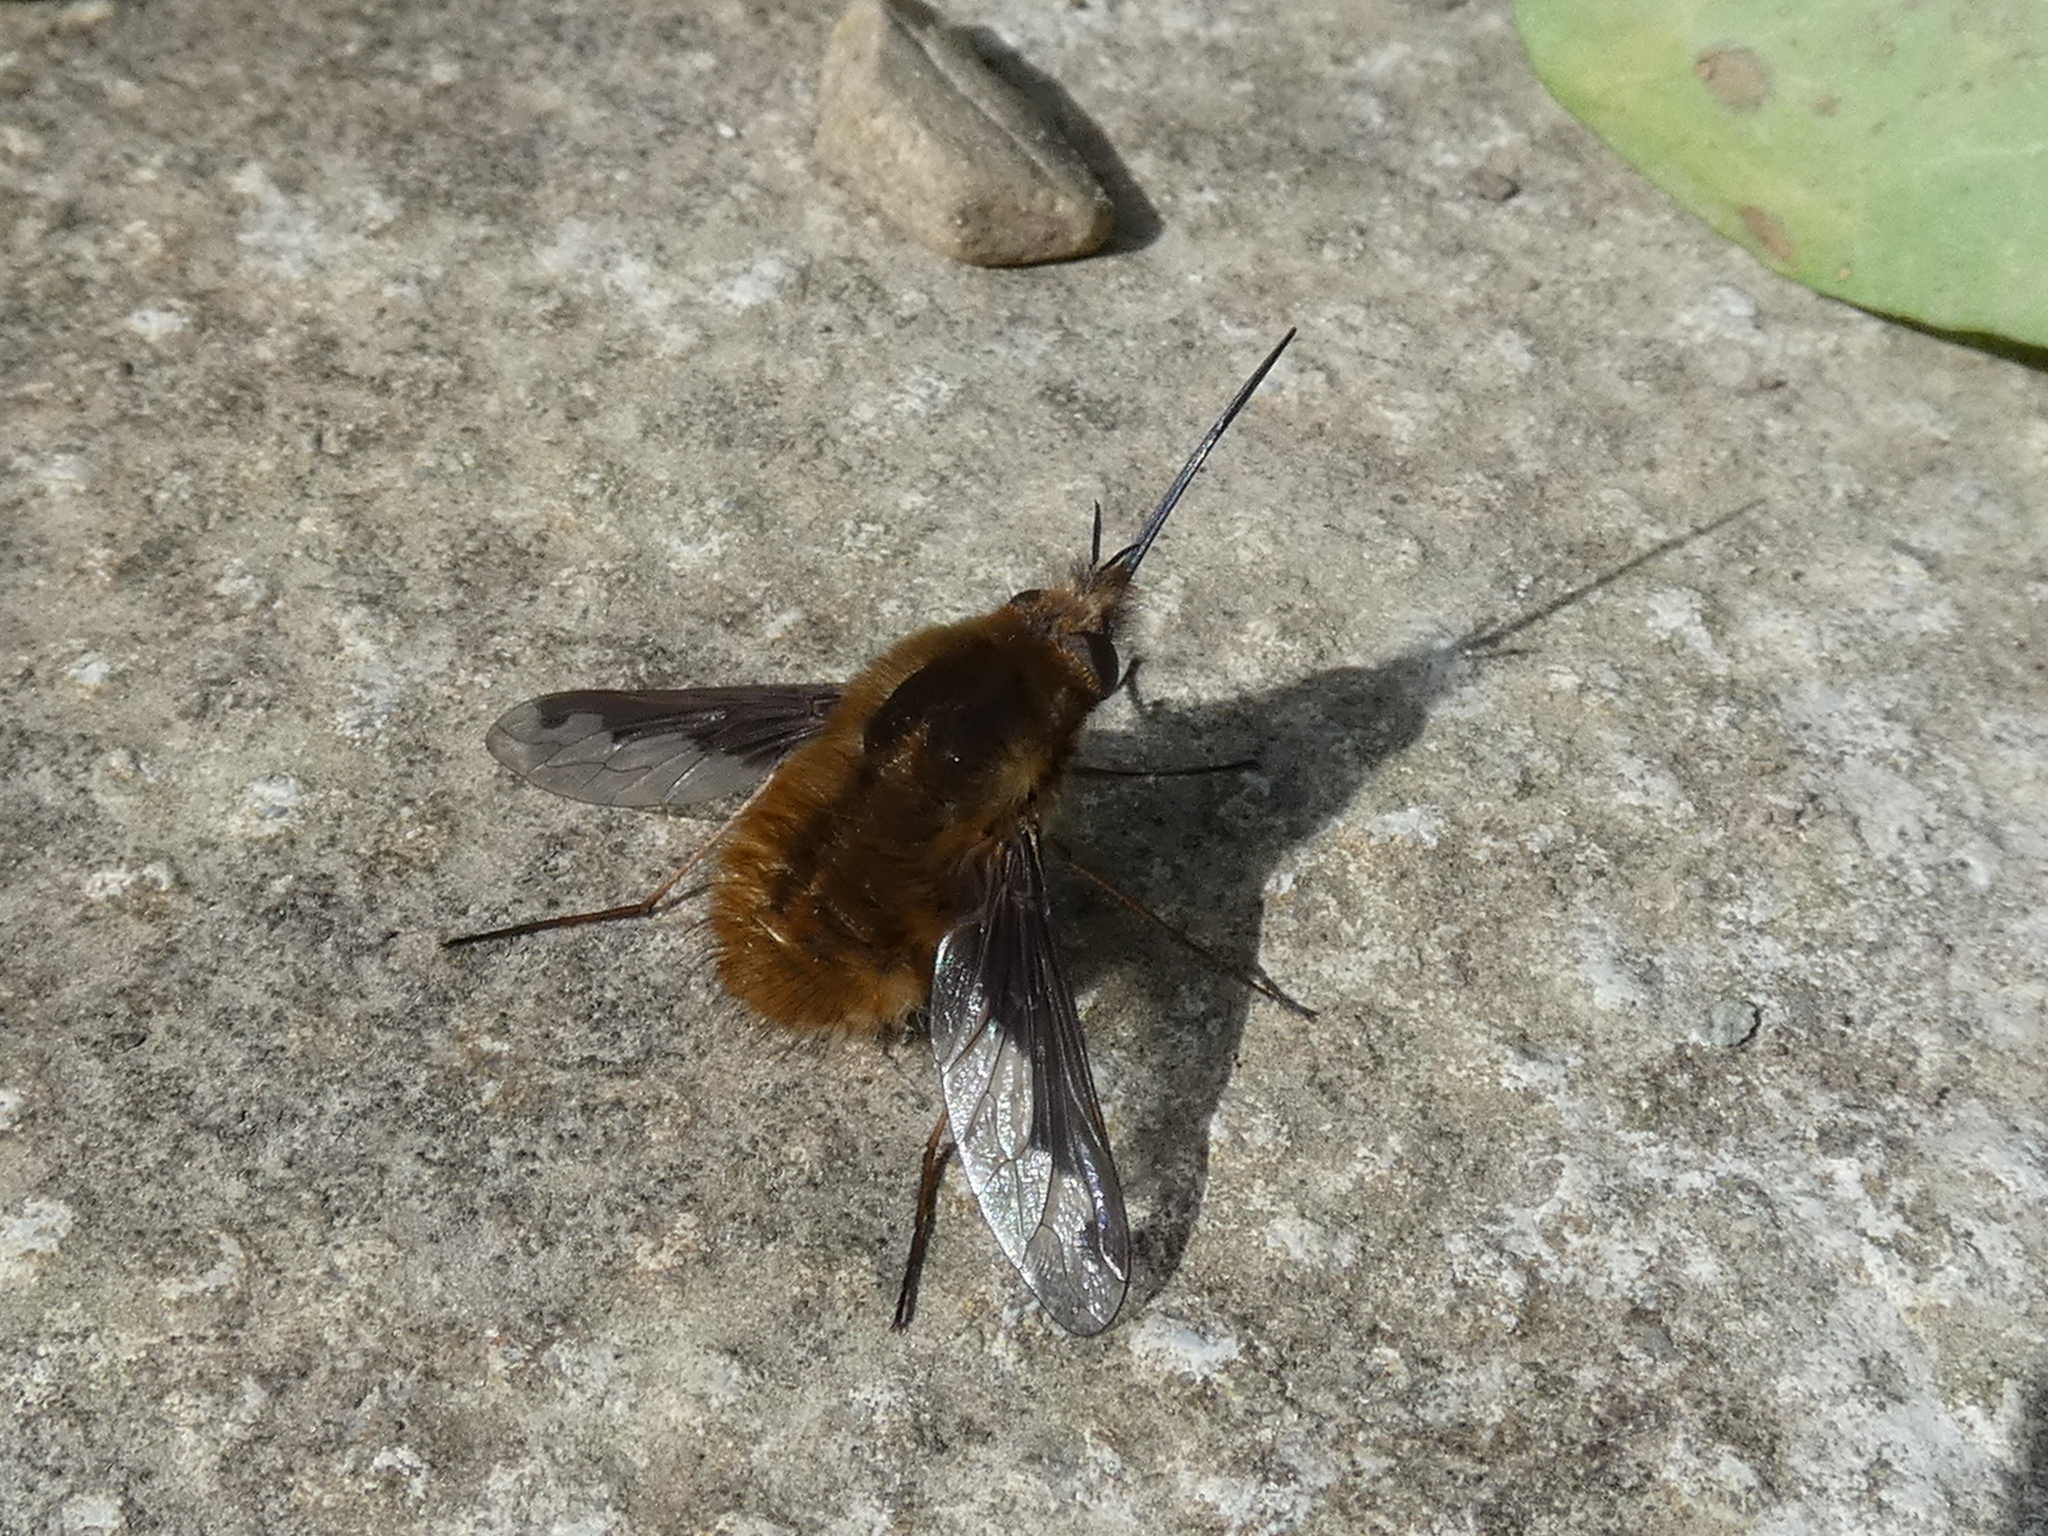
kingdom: Animalia
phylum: Arthropoda
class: Insecta
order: Diptera
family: Bombyliidae
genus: Bombylius
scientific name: Bombylius major
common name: Bee fly
